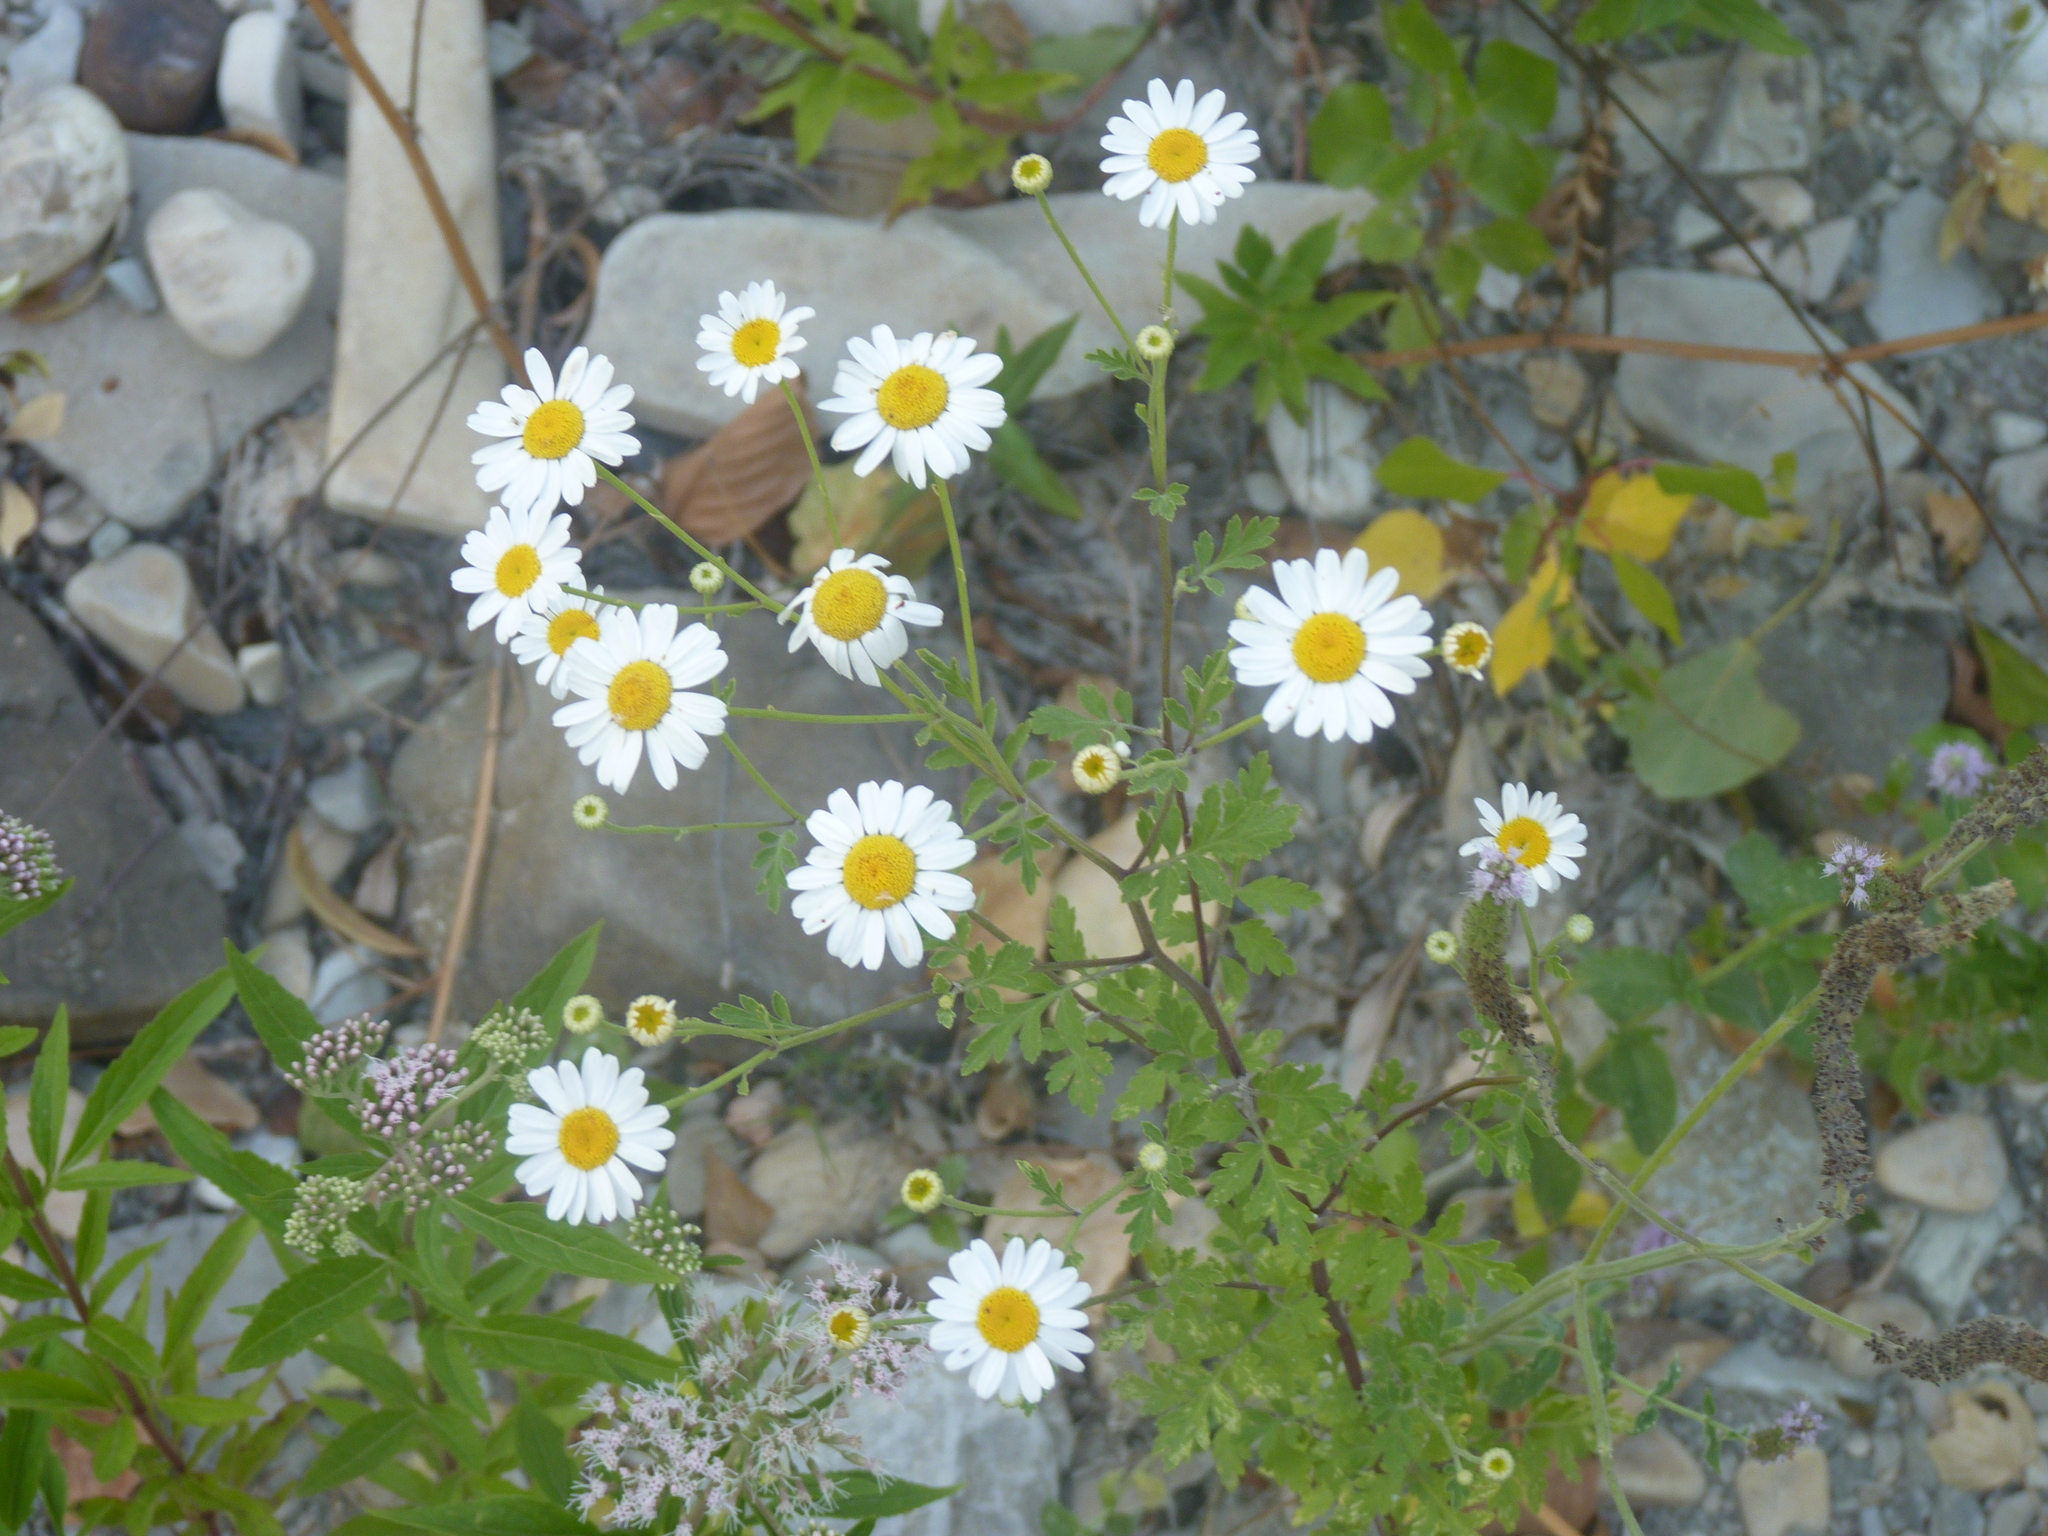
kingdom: Plantae
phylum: Tracheophyta
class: Magnoliopsida
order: Asterales
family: Asteraceae
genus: Tanacetum
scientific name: Tanacetum parthenium
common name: Feverfew
